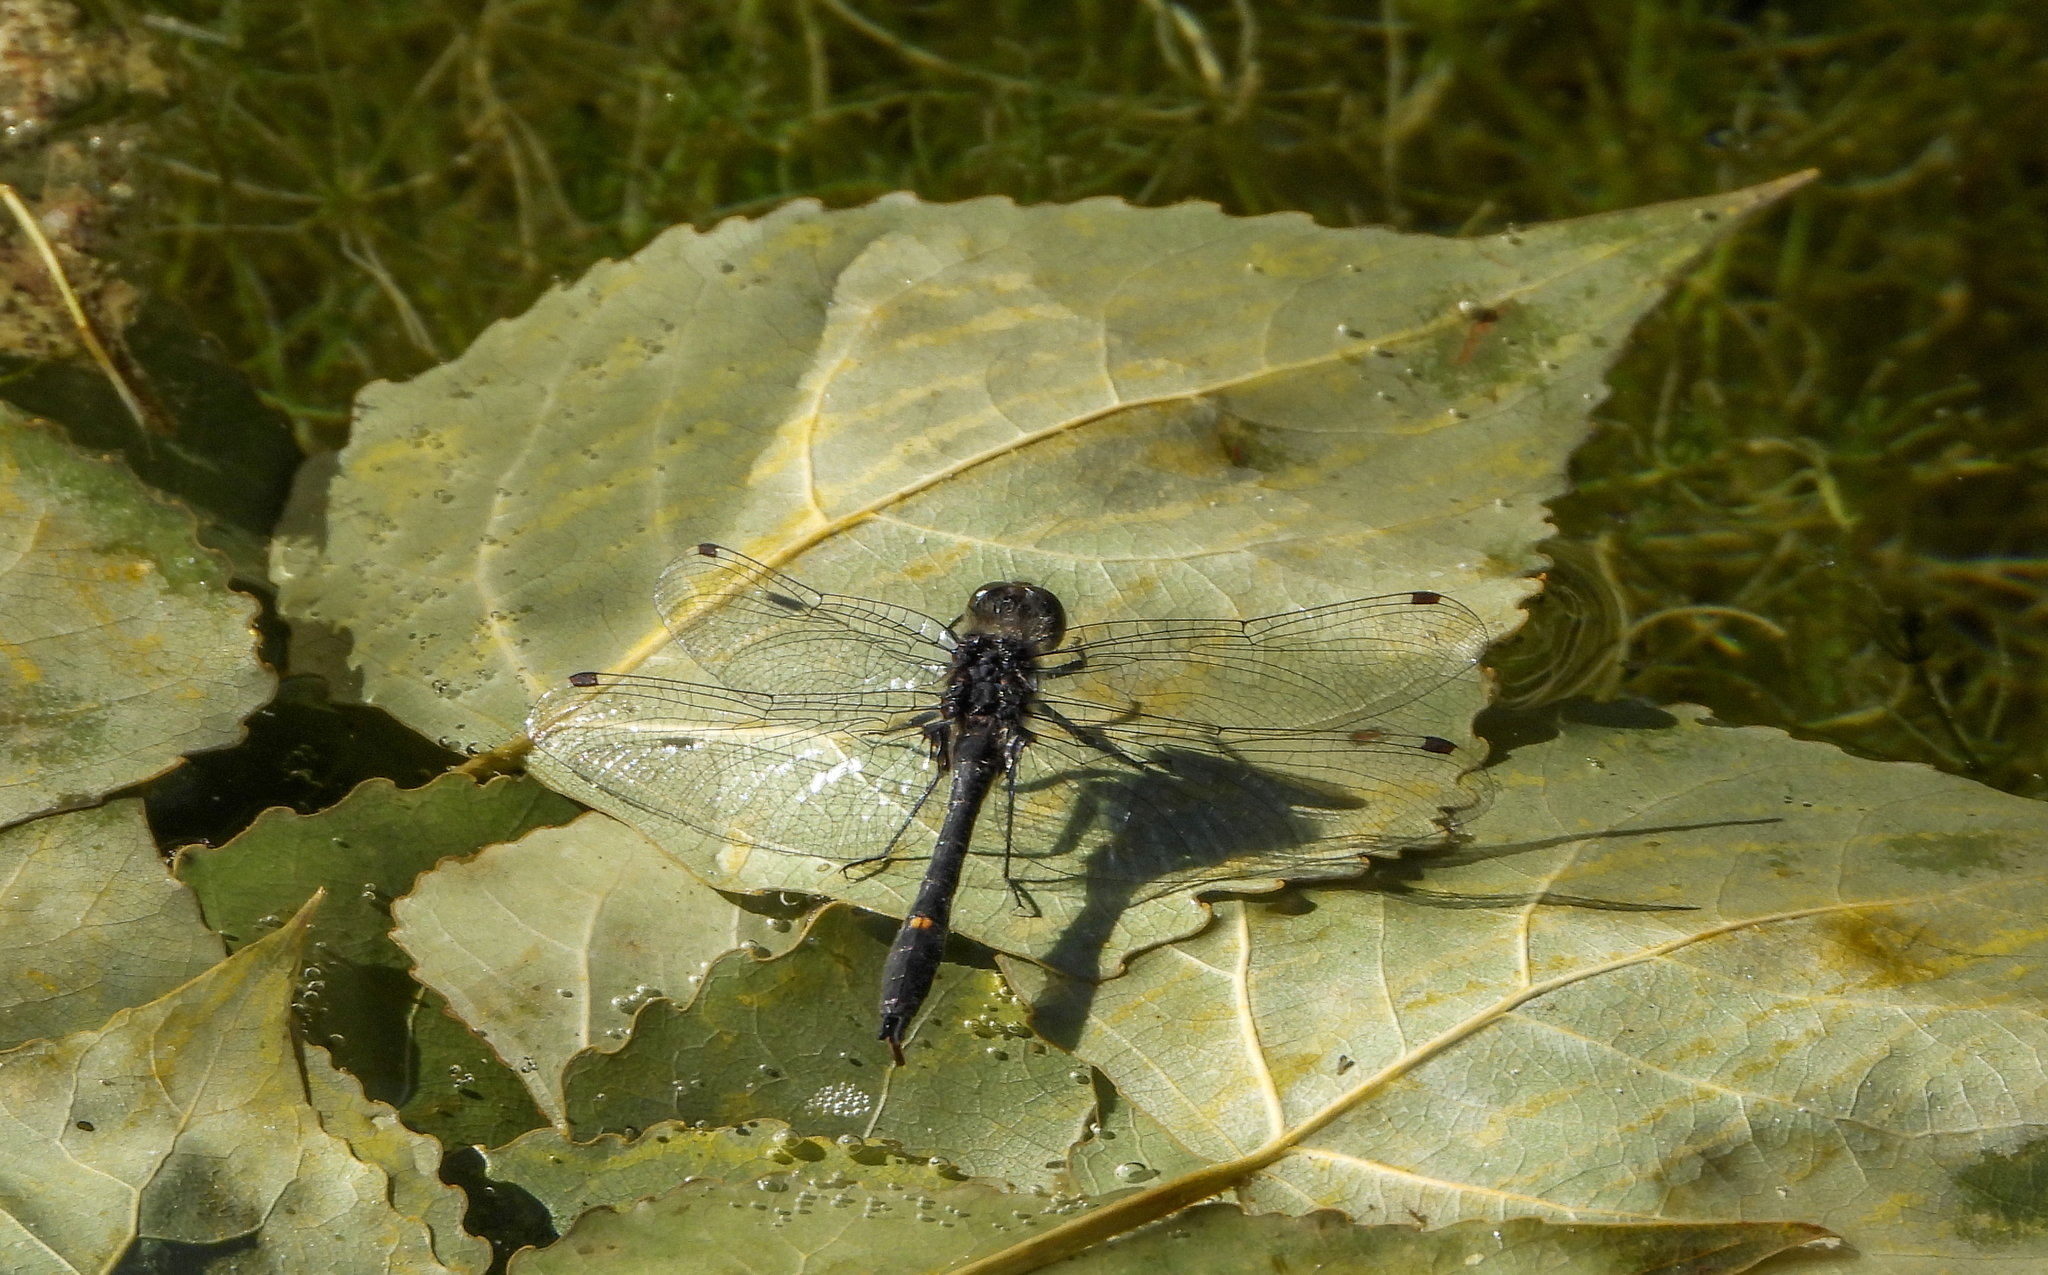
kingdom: Animalia
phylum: Arthropoda
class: Insecta
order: Odonata
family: Libellulidae
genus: Leucorrhinia
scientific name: Leucorrhinia intacta
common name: Dot-tailed whiteface
